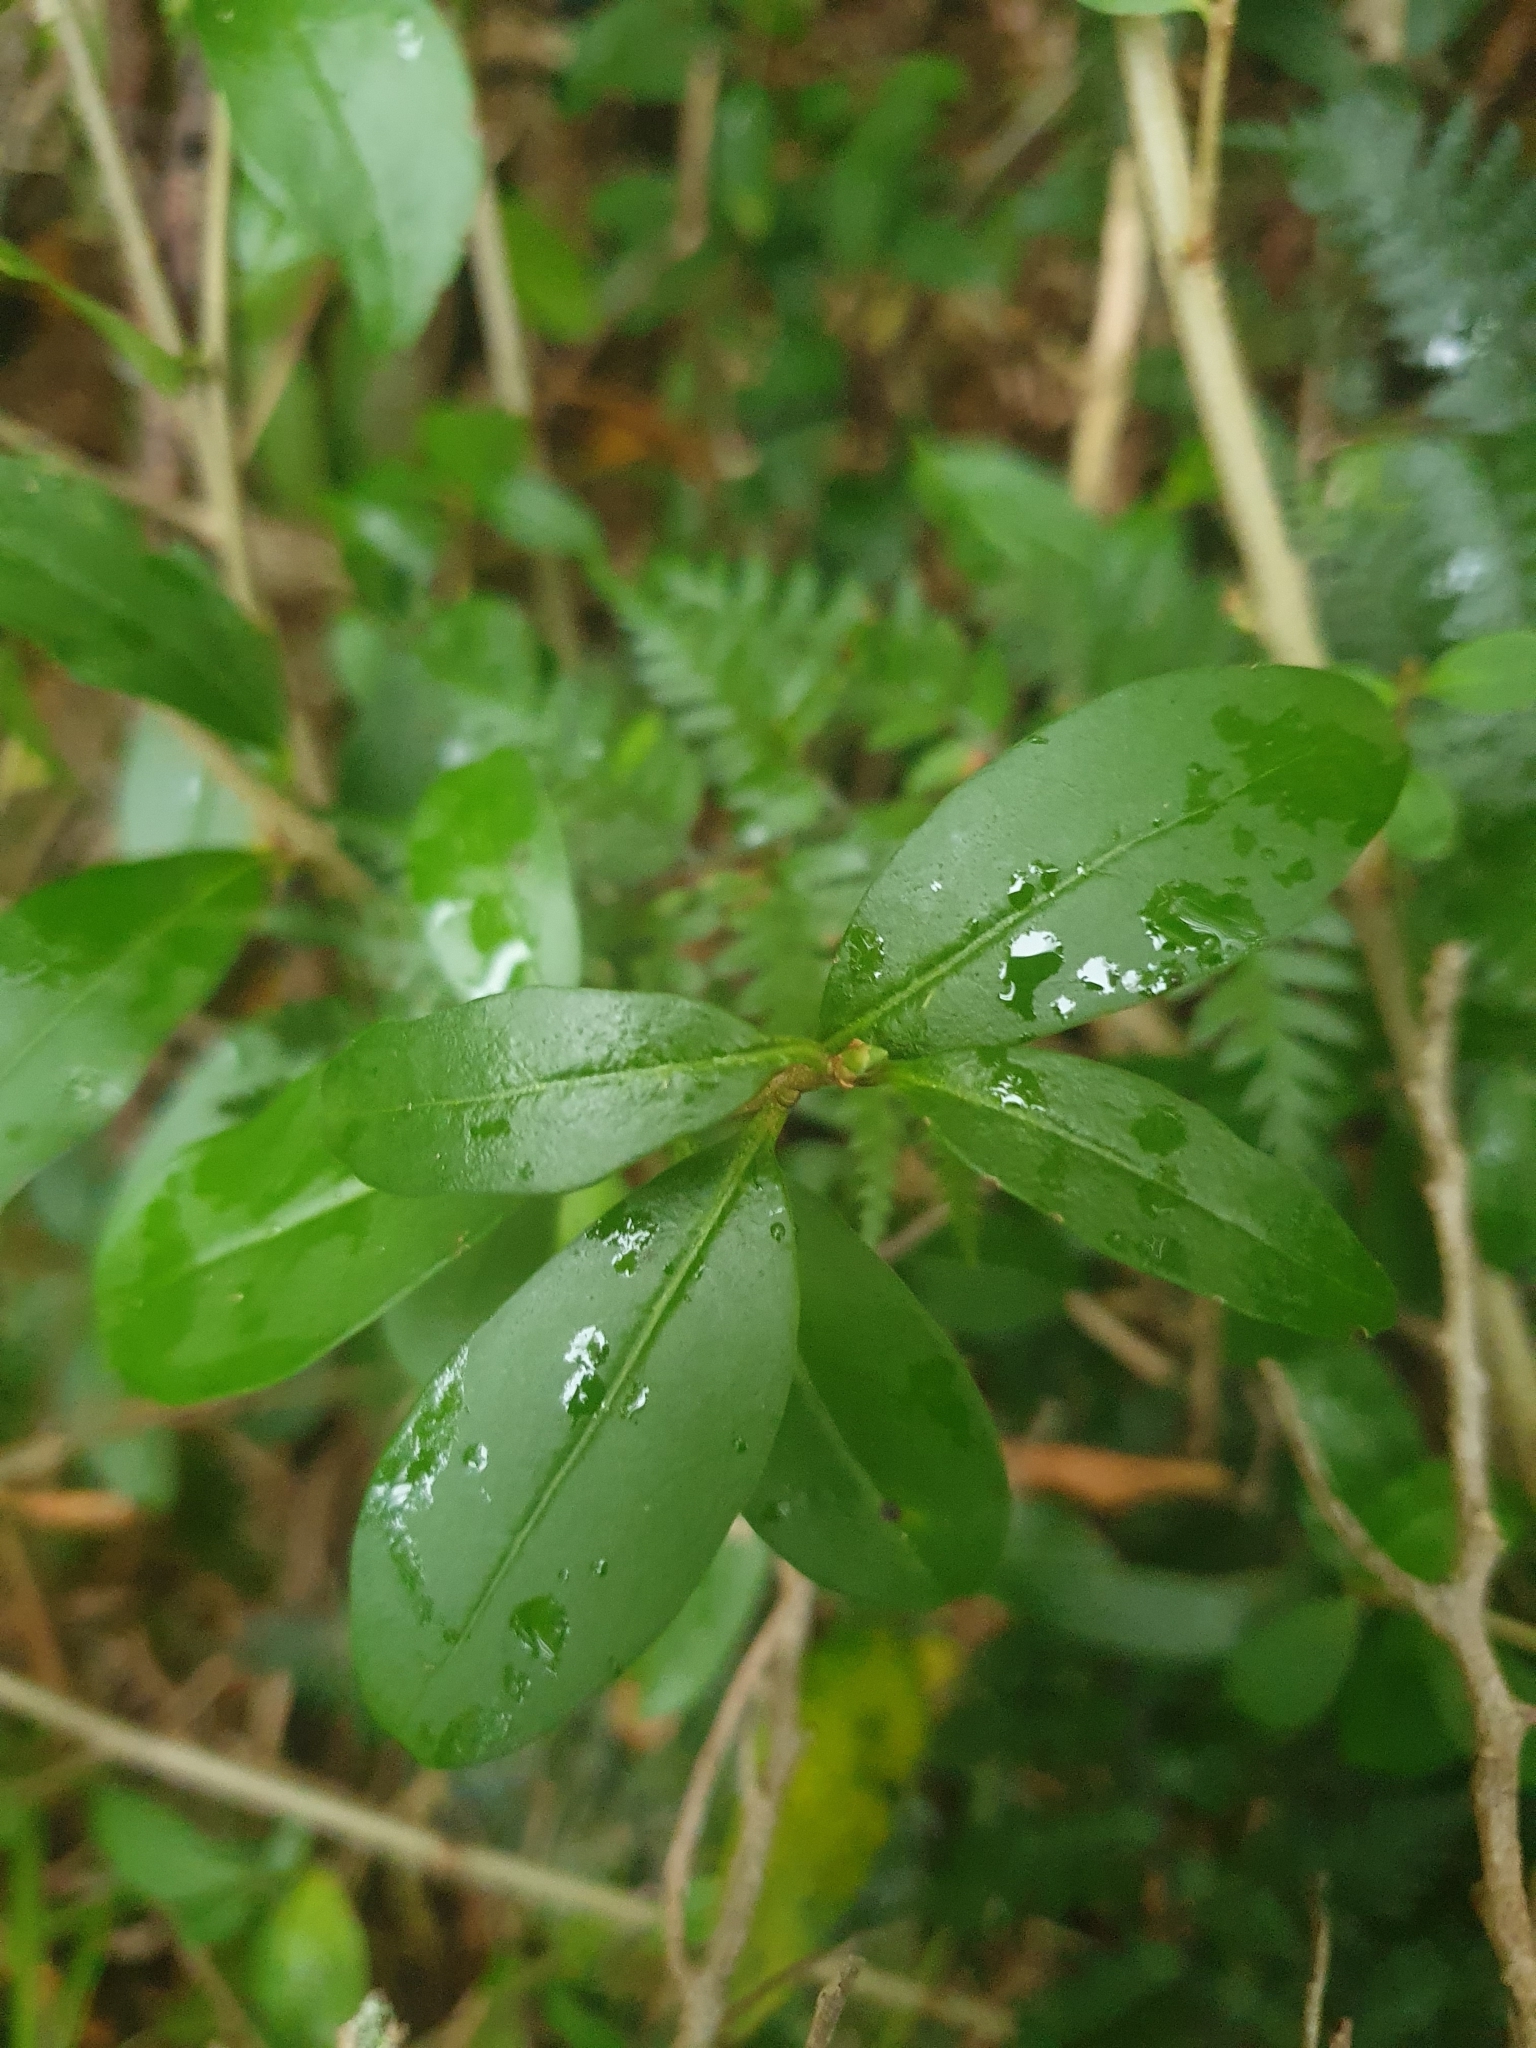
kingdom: Plantae
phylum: Tracheophyta
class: Magnoliopsida
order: Lamiales
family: Oleaceae
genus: Ligustrum
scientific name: Ligustrum sinense
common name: Chinese privet
